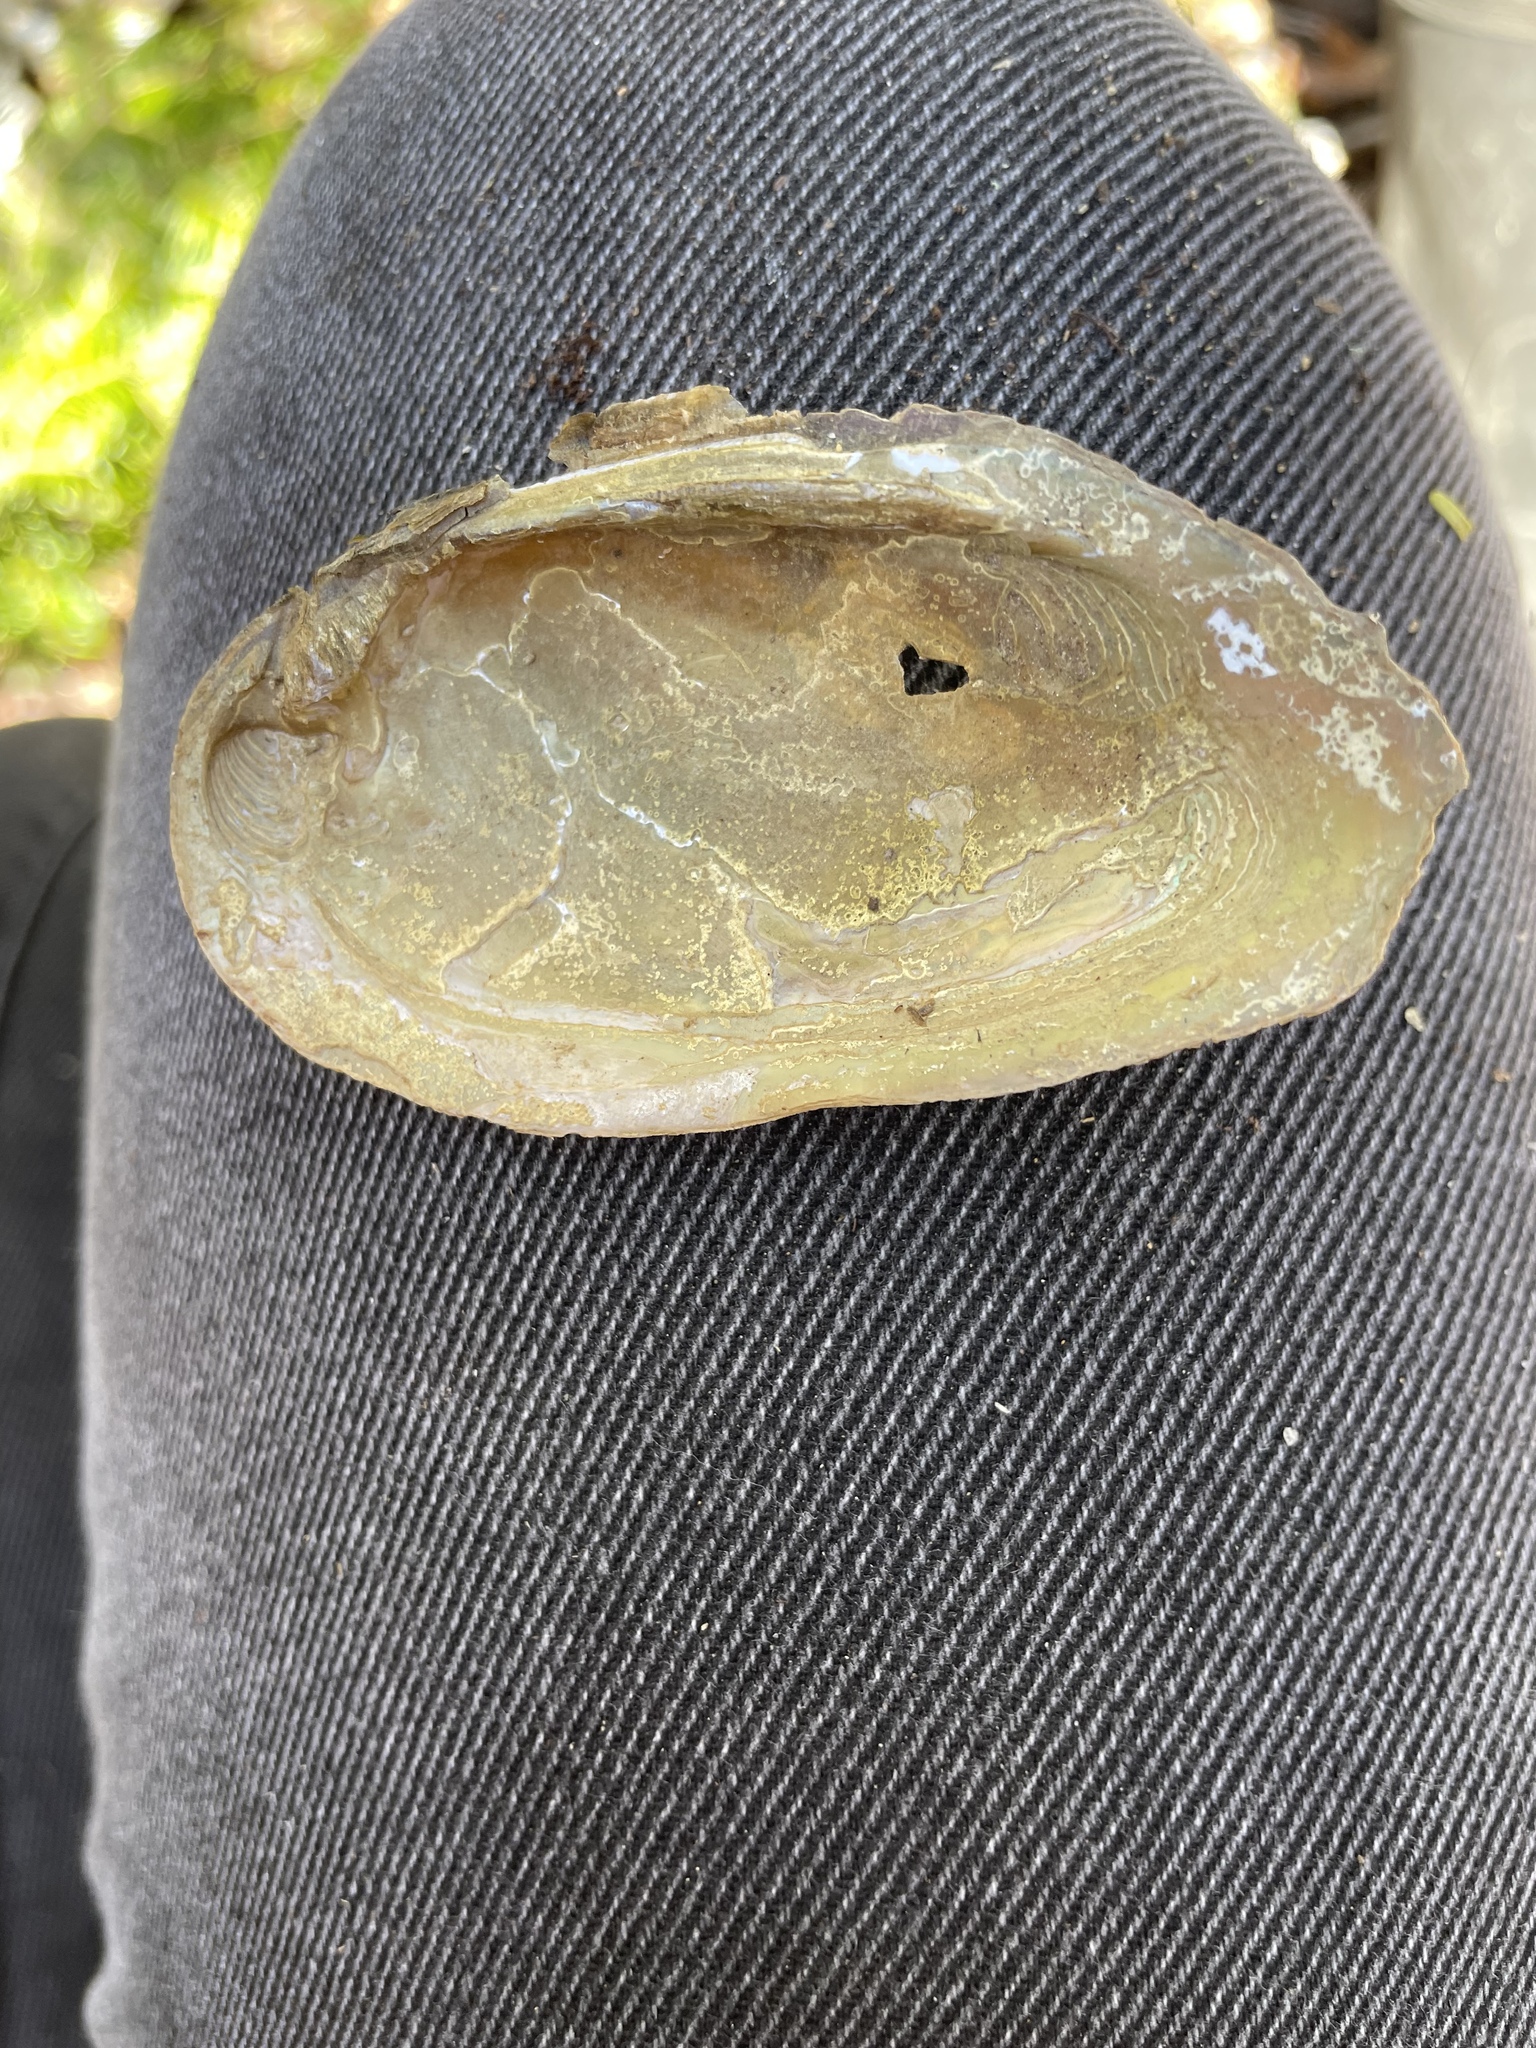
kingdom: Animalia
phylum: Mollusca
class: Bivalvia
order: Unionida
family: Unionidae
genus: Elliptio
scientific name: Elliptio complanata
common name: Eastern elliptio
